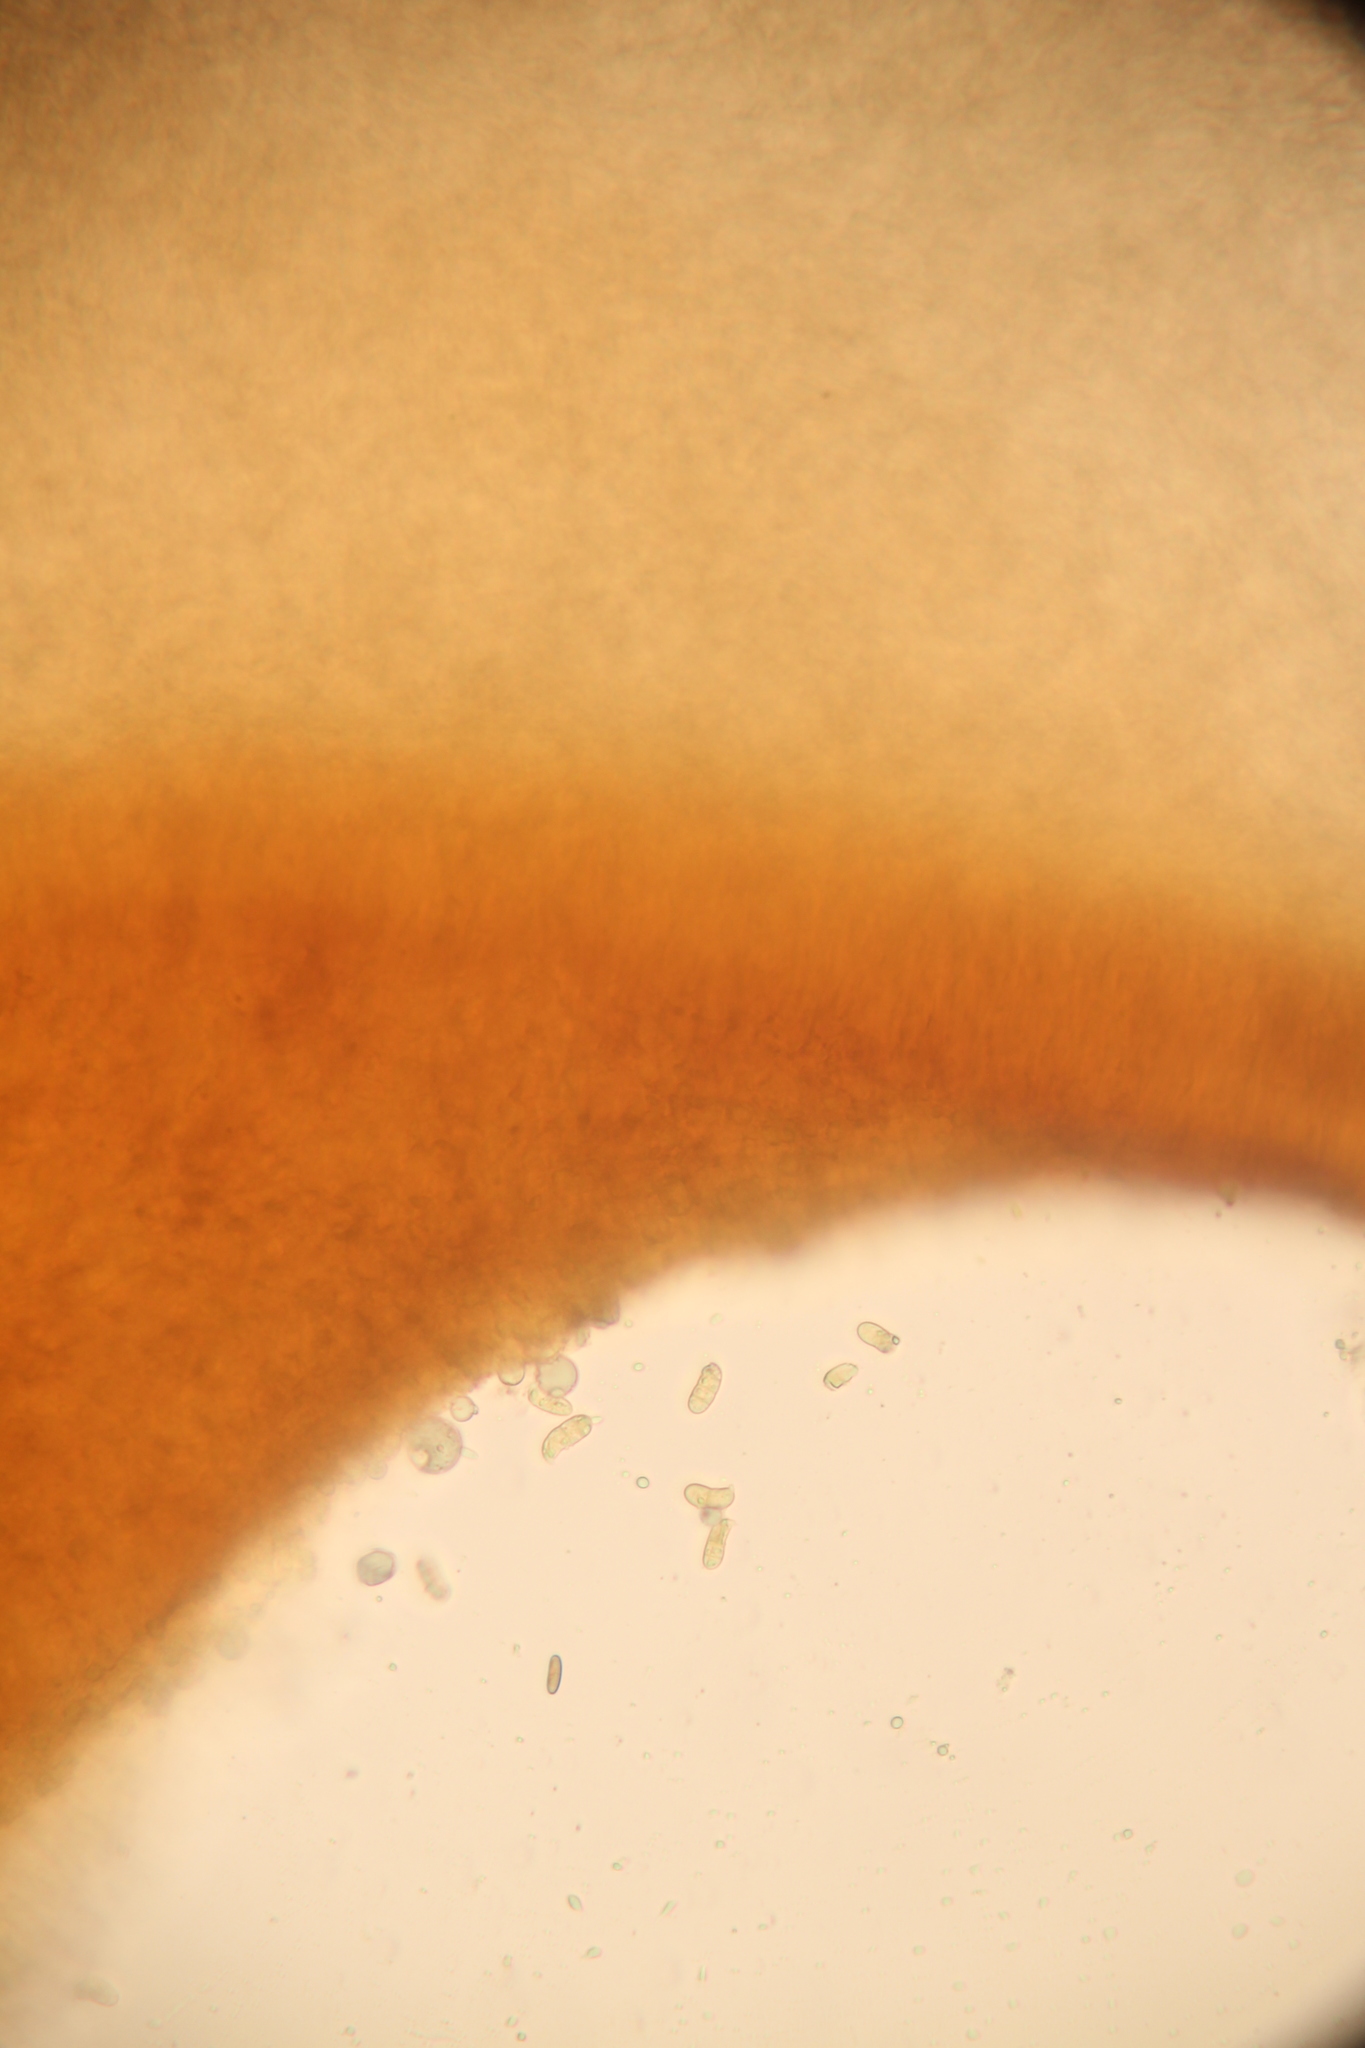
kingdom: Fungi
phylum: Basidiomycota
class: Dacrymycetes
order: Dacrymycetales
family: Dacrymycetaceae
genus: Dacryopinax
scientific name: Dacryopinax elegans
